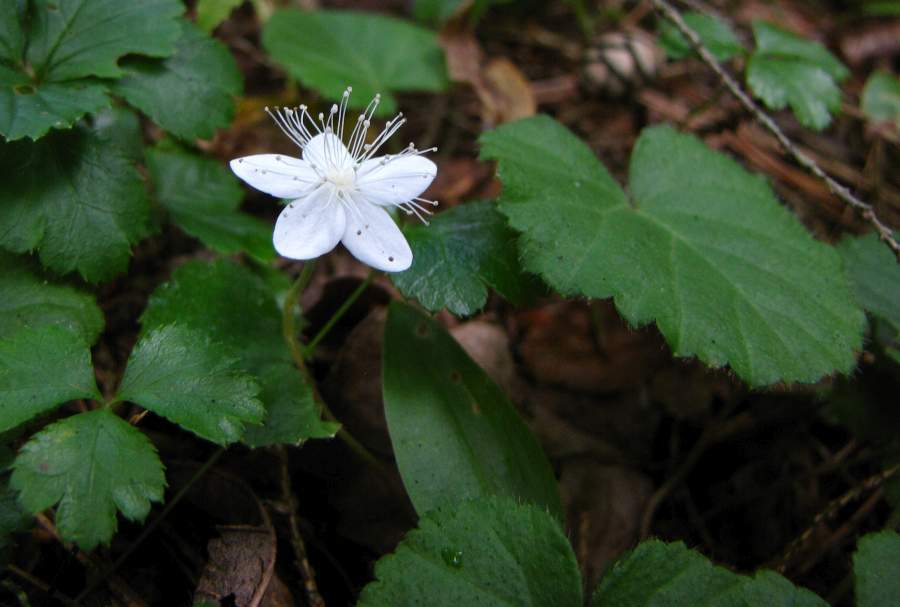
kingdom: Plantae
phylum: Tracheophyta
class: Magnoliopsida
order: Rosales
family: Rosaceae
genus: Dalibarda
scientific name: Dalibarda repens
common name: Dewdrop
